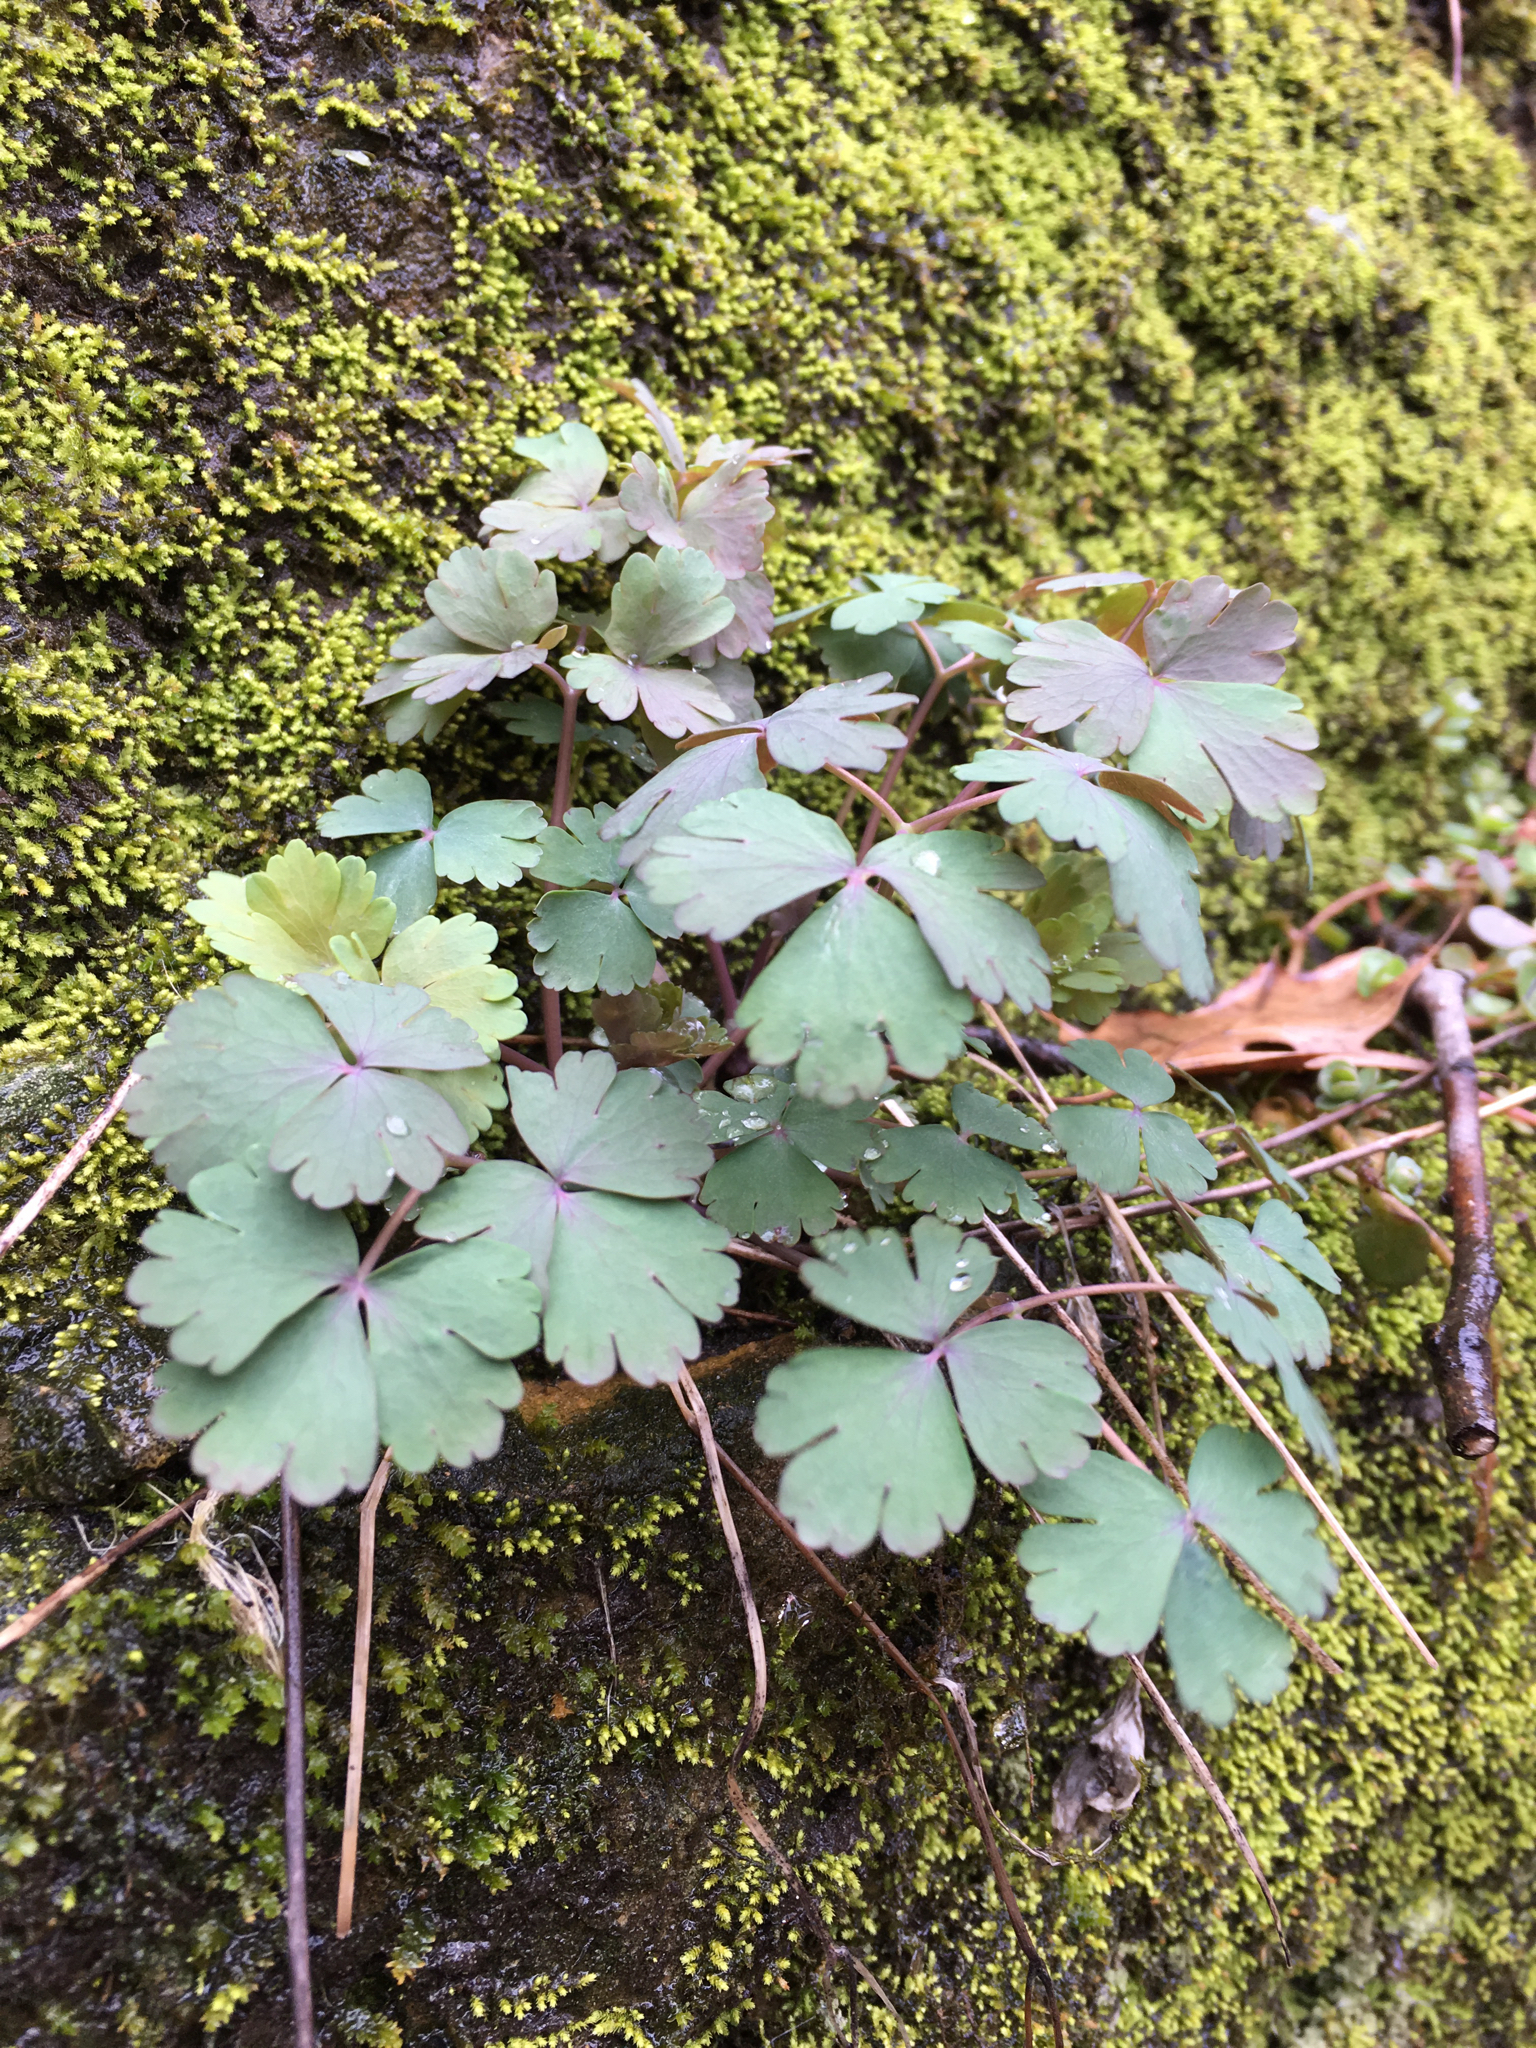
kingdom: Plantae
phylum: Tracheophyta
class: Magnoliopsida
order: Ranunculales
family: Ranunculaceae
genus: Aquilegia
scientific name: Aquilegia canadensis
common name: American columbine
